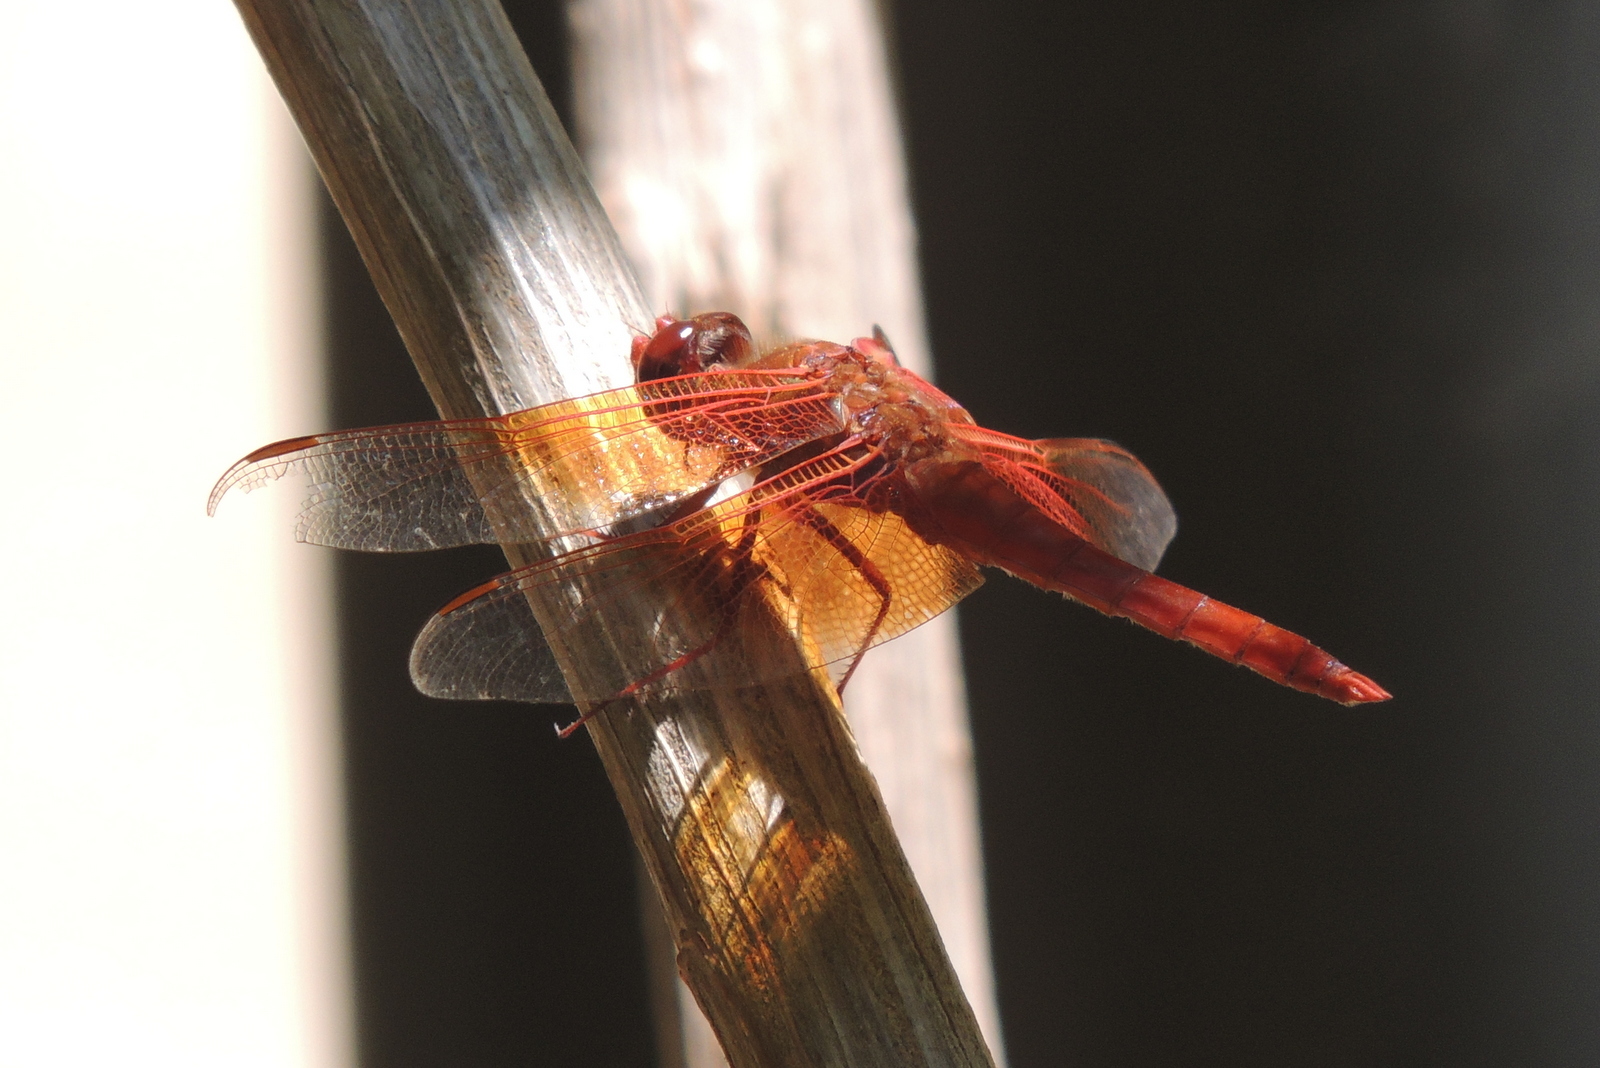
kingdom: Animalia
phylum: Arthropoda
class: Insecta
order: Odonata
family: Libellulidae
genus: Libellula
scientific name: Libellula saturata
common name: Flame skimmer
